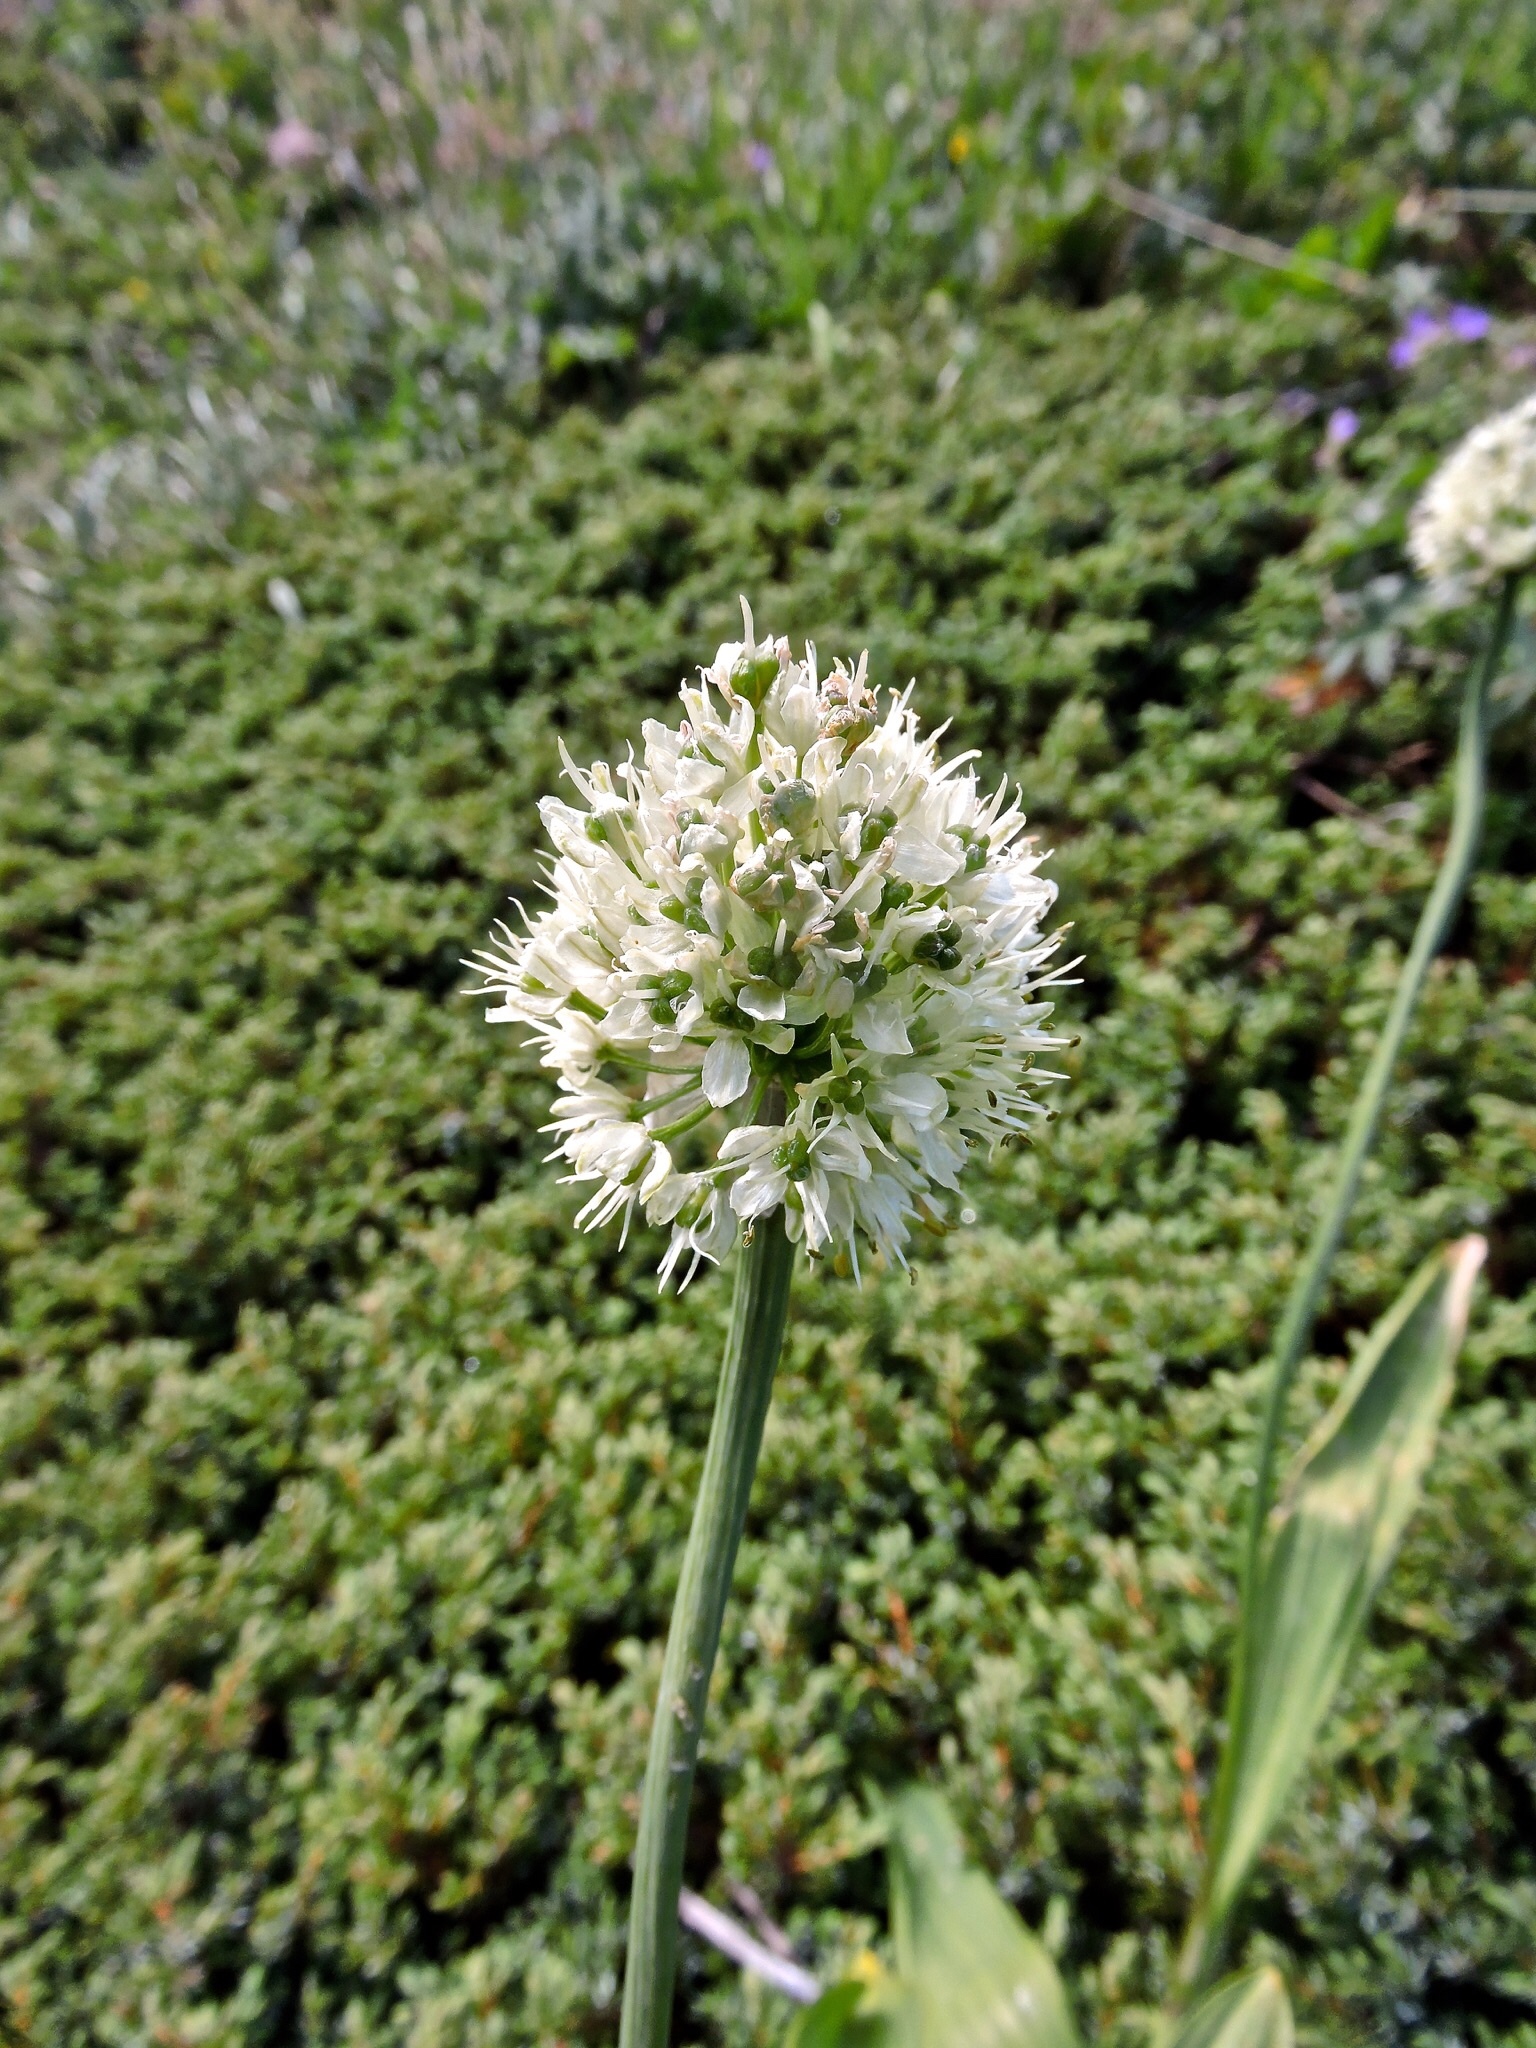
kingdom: Plantae
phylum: Tracheophyta
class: Liliopsida
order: Asparagales
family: Amaryllidaceae
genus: Allium
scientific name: Allium victorialis
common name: Alpine leek
